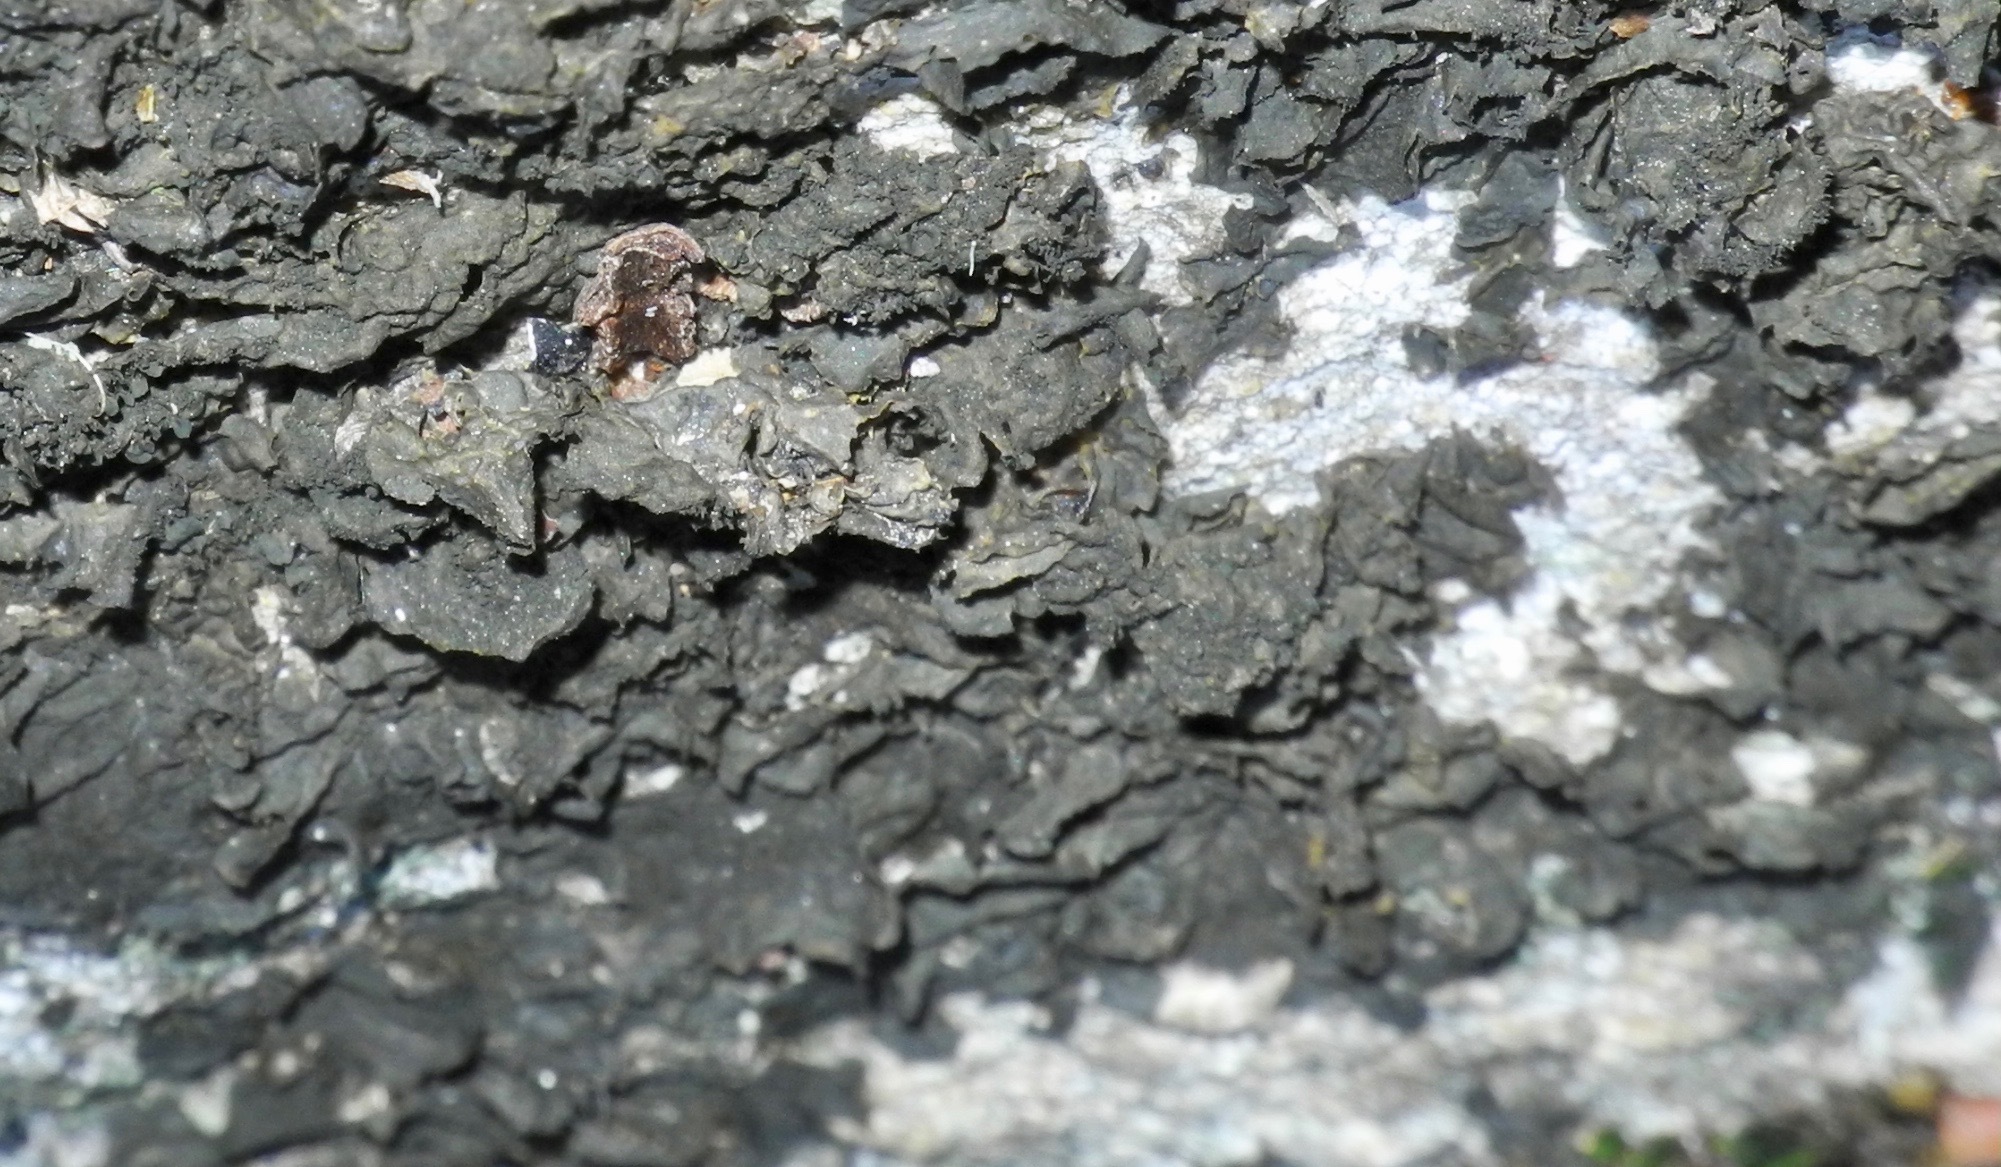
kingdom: Fungi
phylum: Ascomycota
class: Lecanoromycetes
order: Peltigerales
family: Collemataceae
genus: Collema
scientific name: Collema furfuraceum
